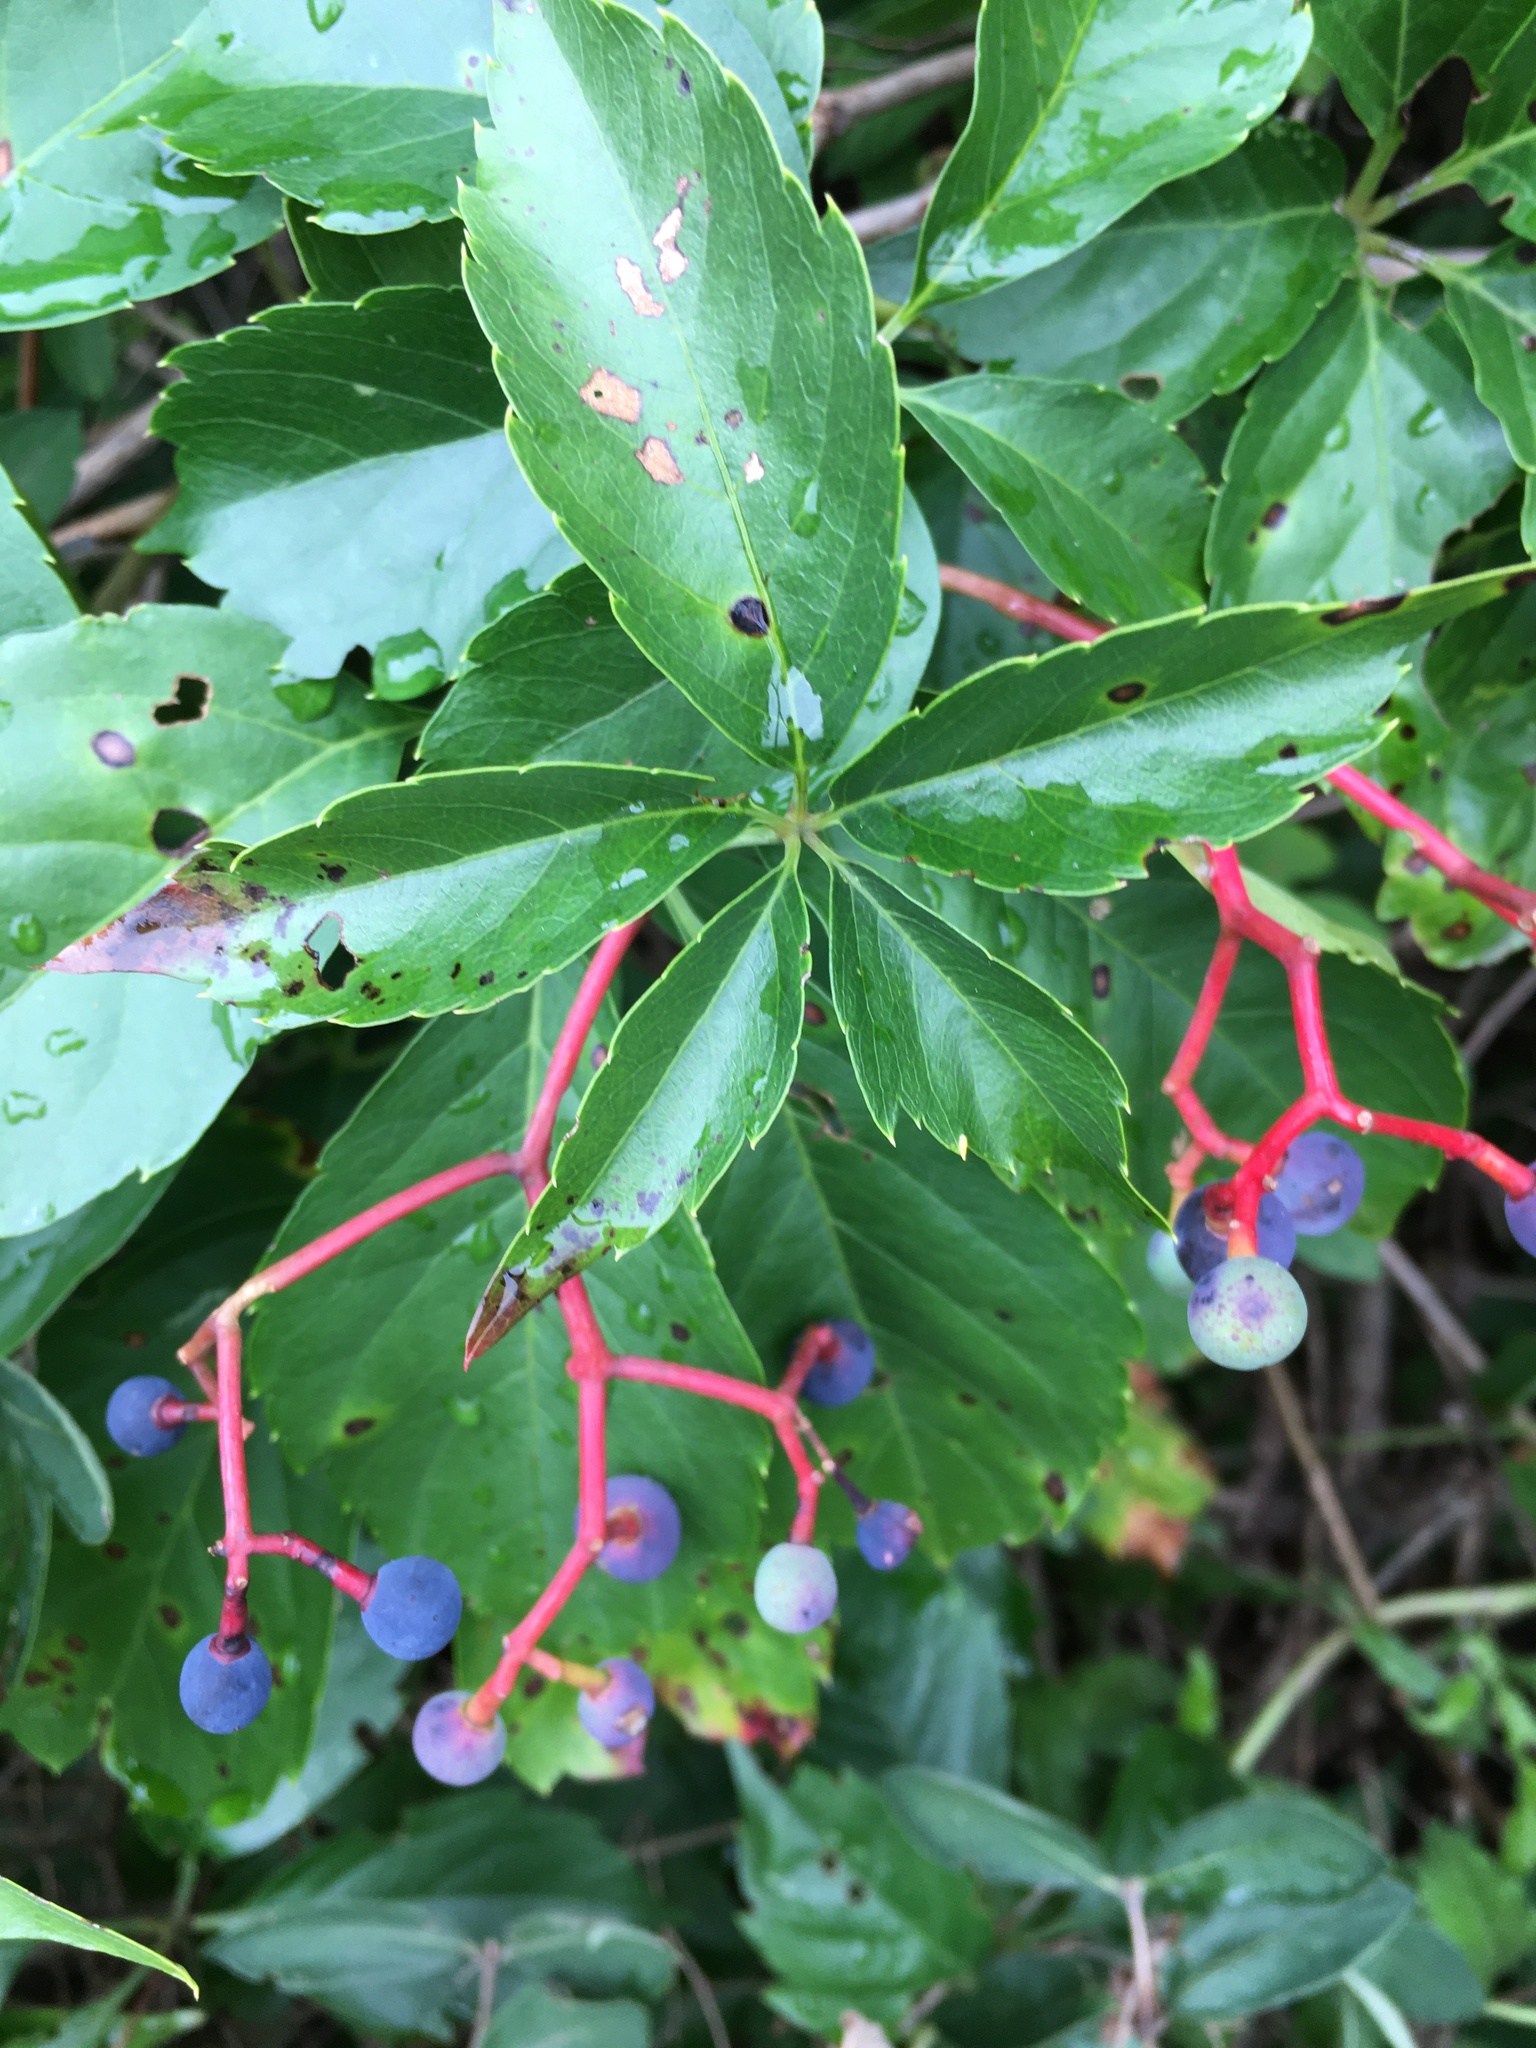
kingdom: Plantae
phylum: Tracheophyta
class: Magnoliopsida
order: Vitales
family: Vitaceae
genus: Parthenocissus
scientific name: Parthenocissus quinquefolia
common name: Virginia-creeper
